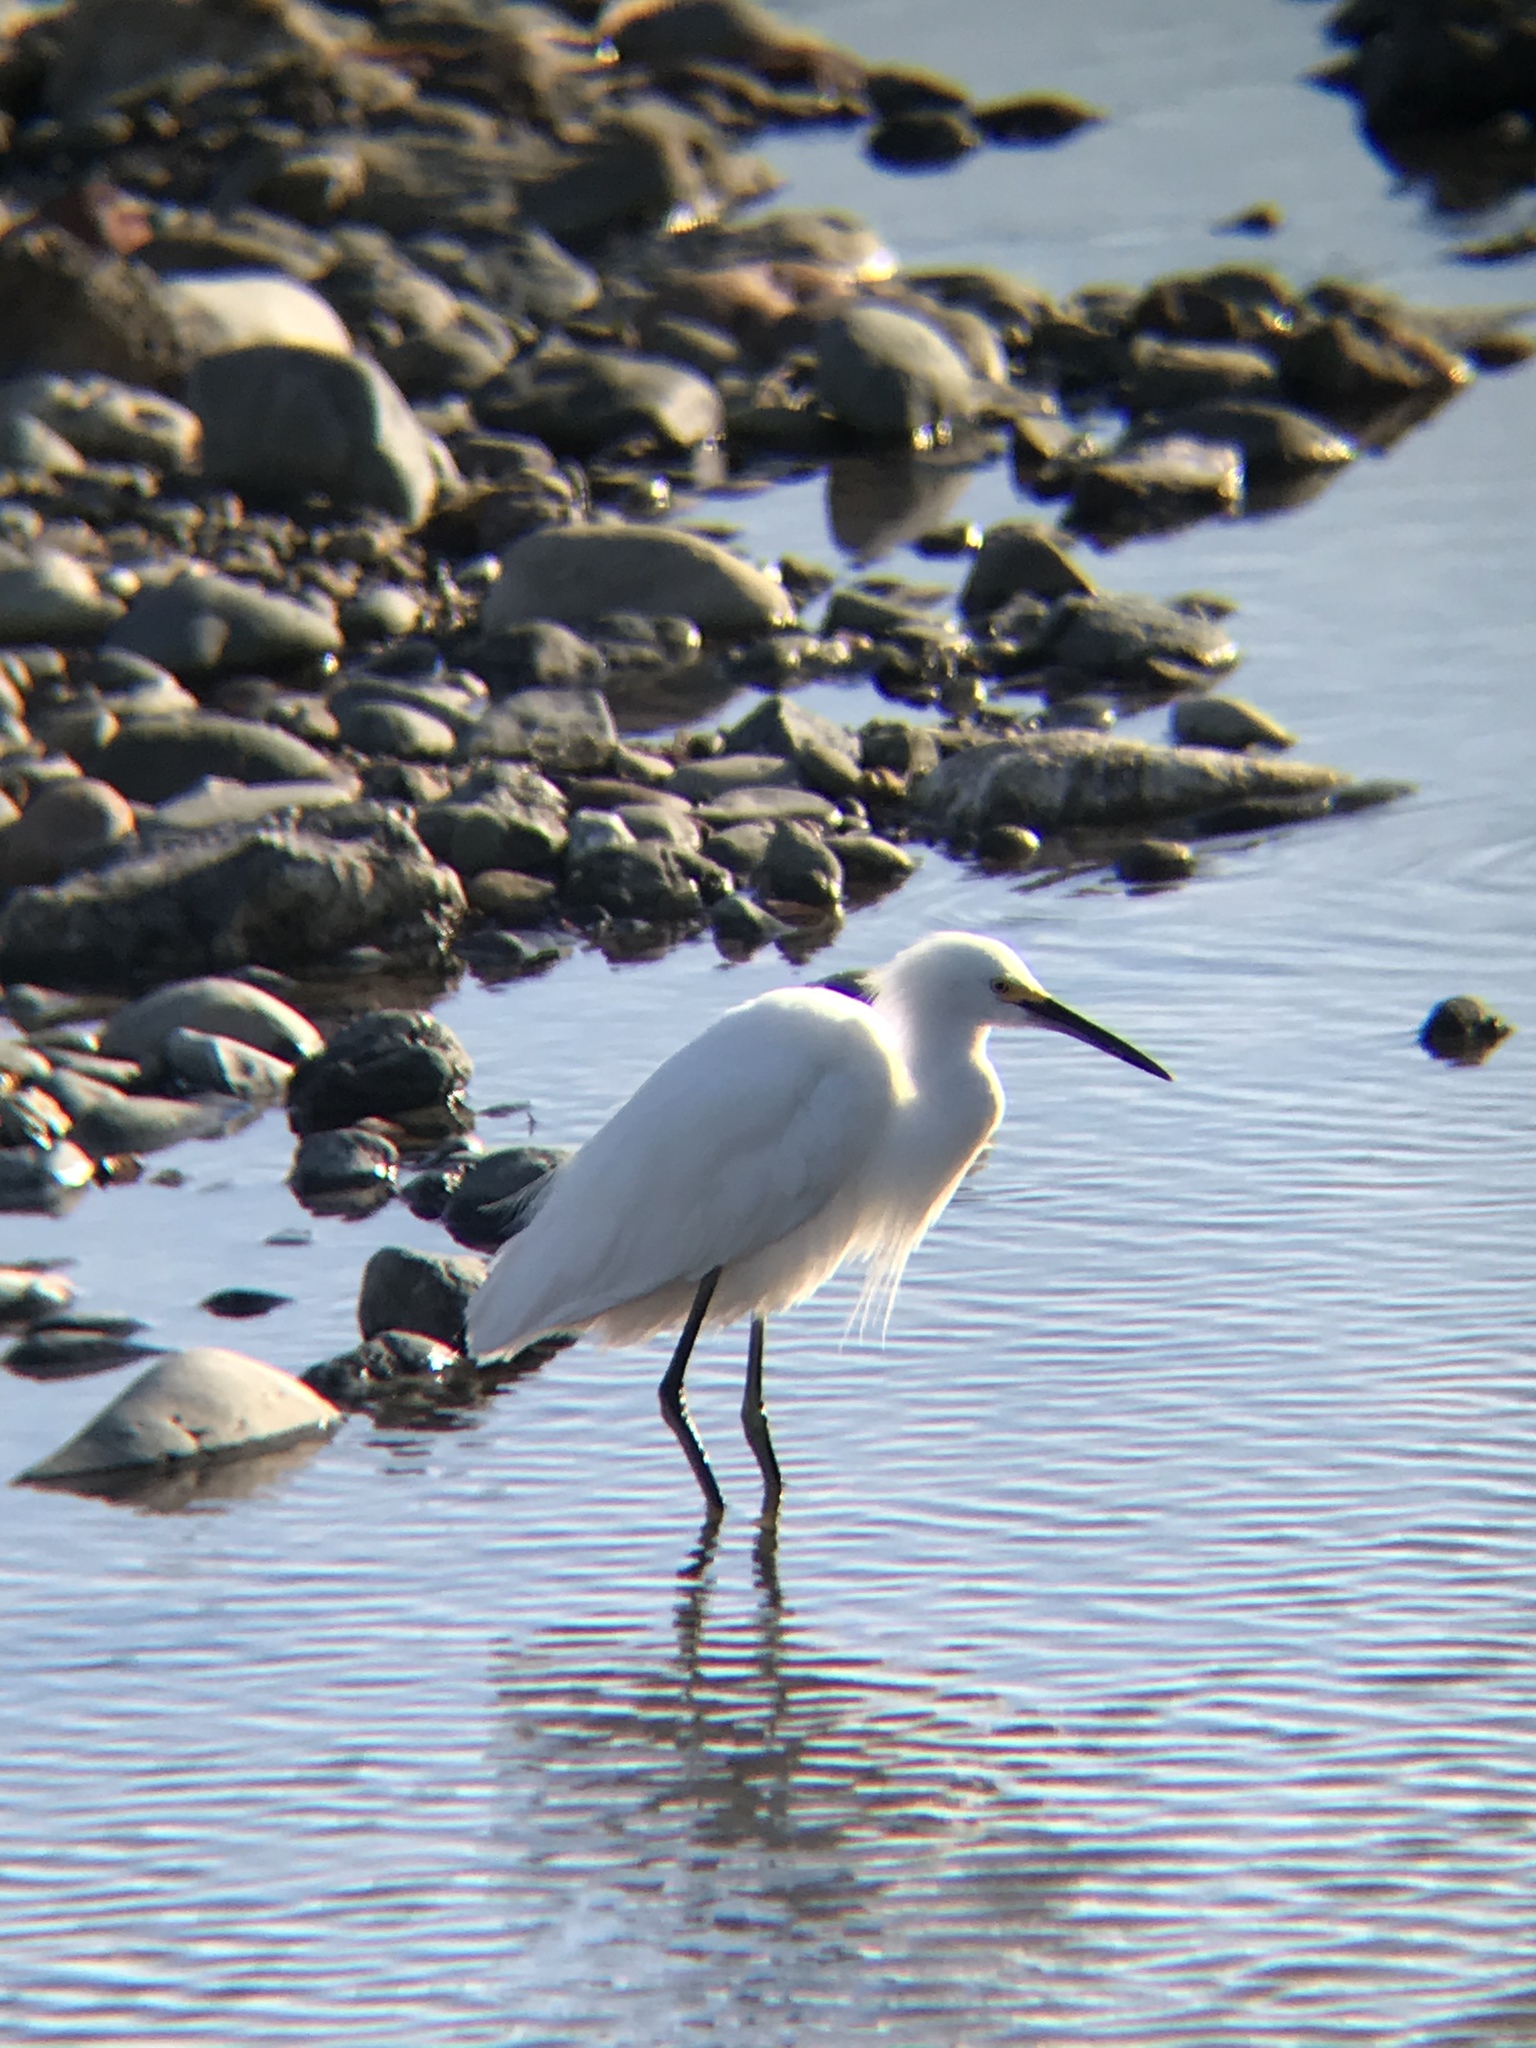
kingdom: Animalia
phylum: Chordata
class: Aves
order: Pelecaniformes
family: Ardeidae
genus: Egretta
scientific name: Egretta thula
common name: Snowy egret
